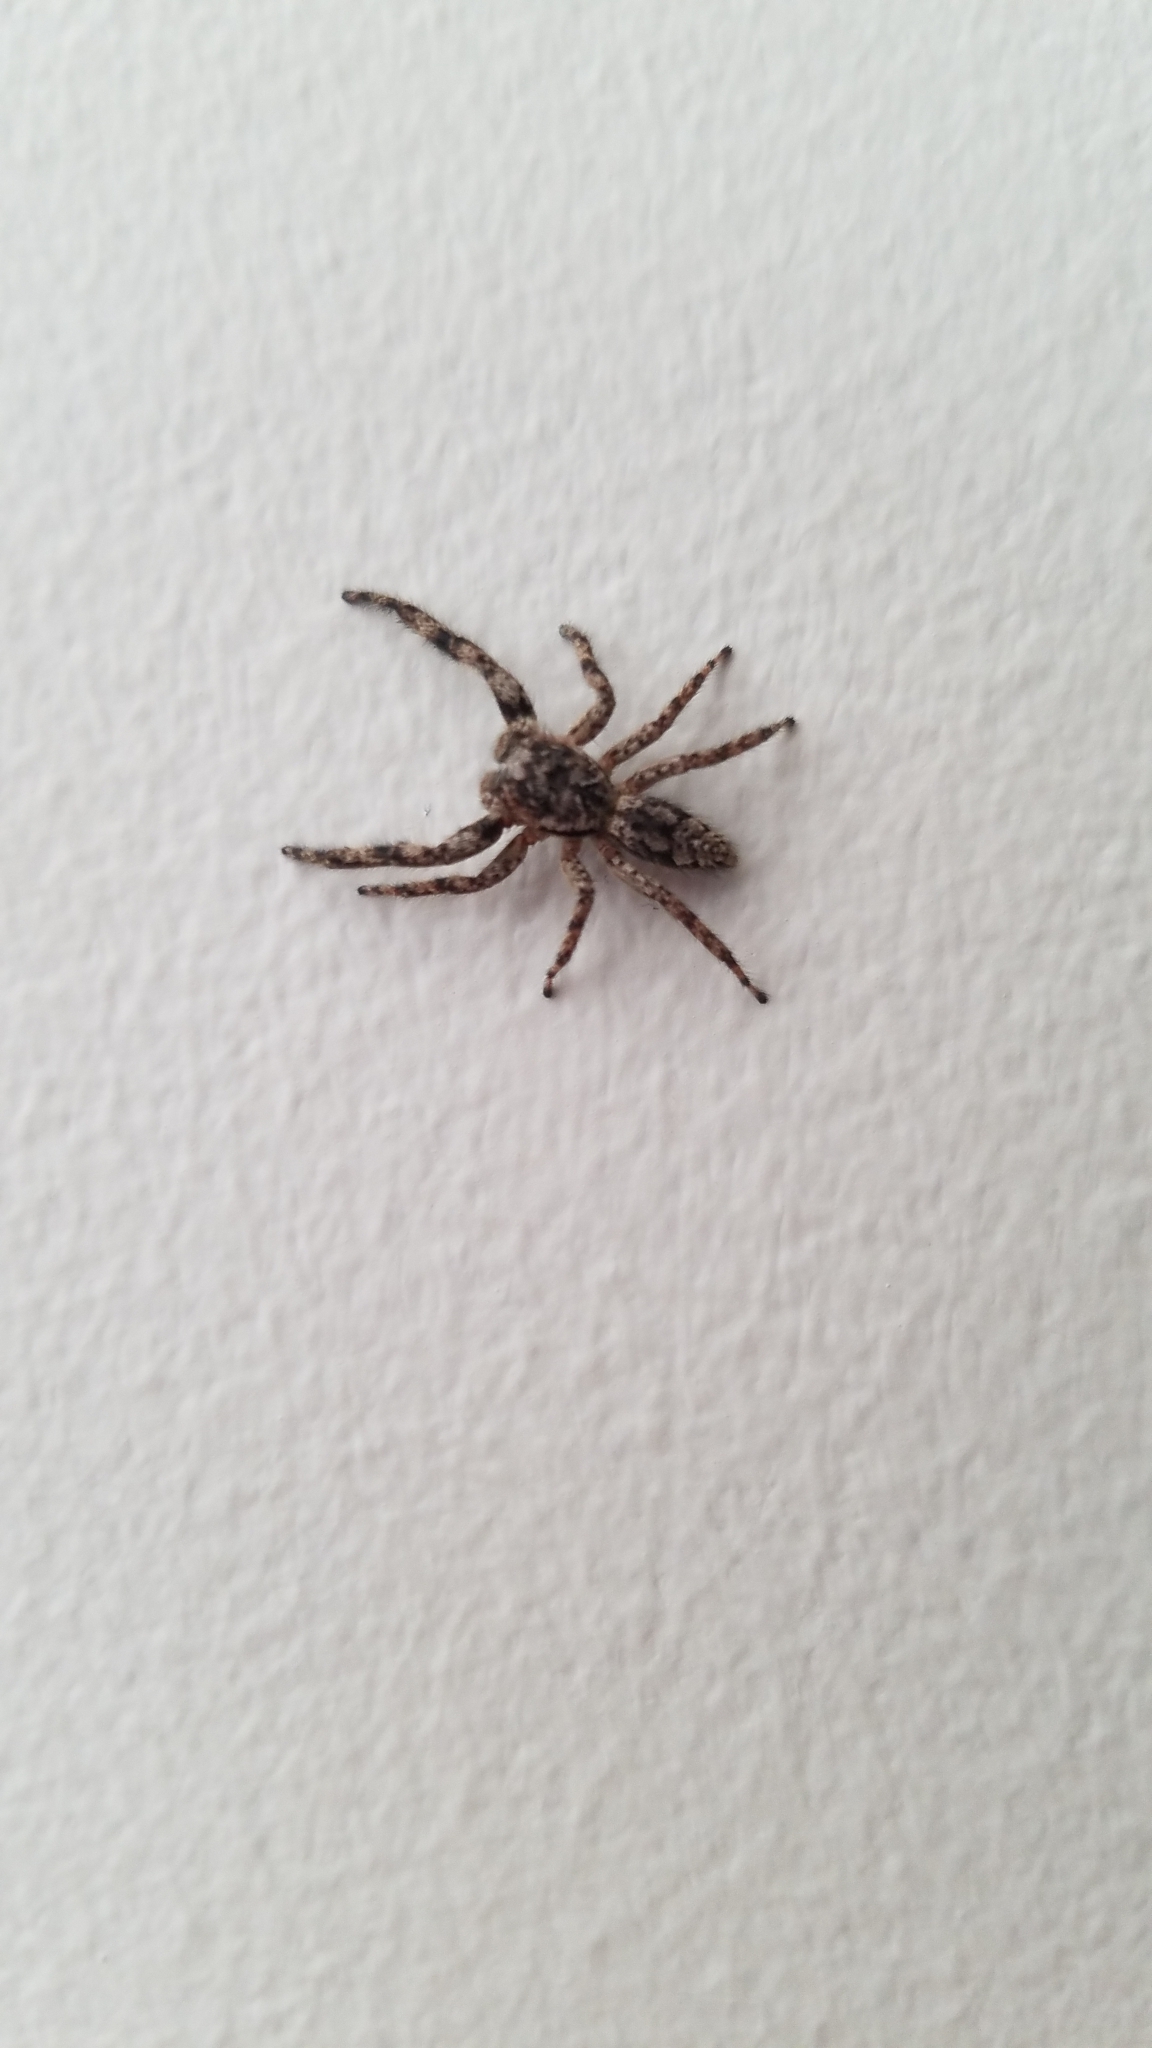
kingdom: Animalia
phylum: Arthropoda
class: Arachnida
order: Araneae
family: Salticidae
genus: Platycryptus
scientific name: Platycryptus undatus
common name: Tan jumping spider
